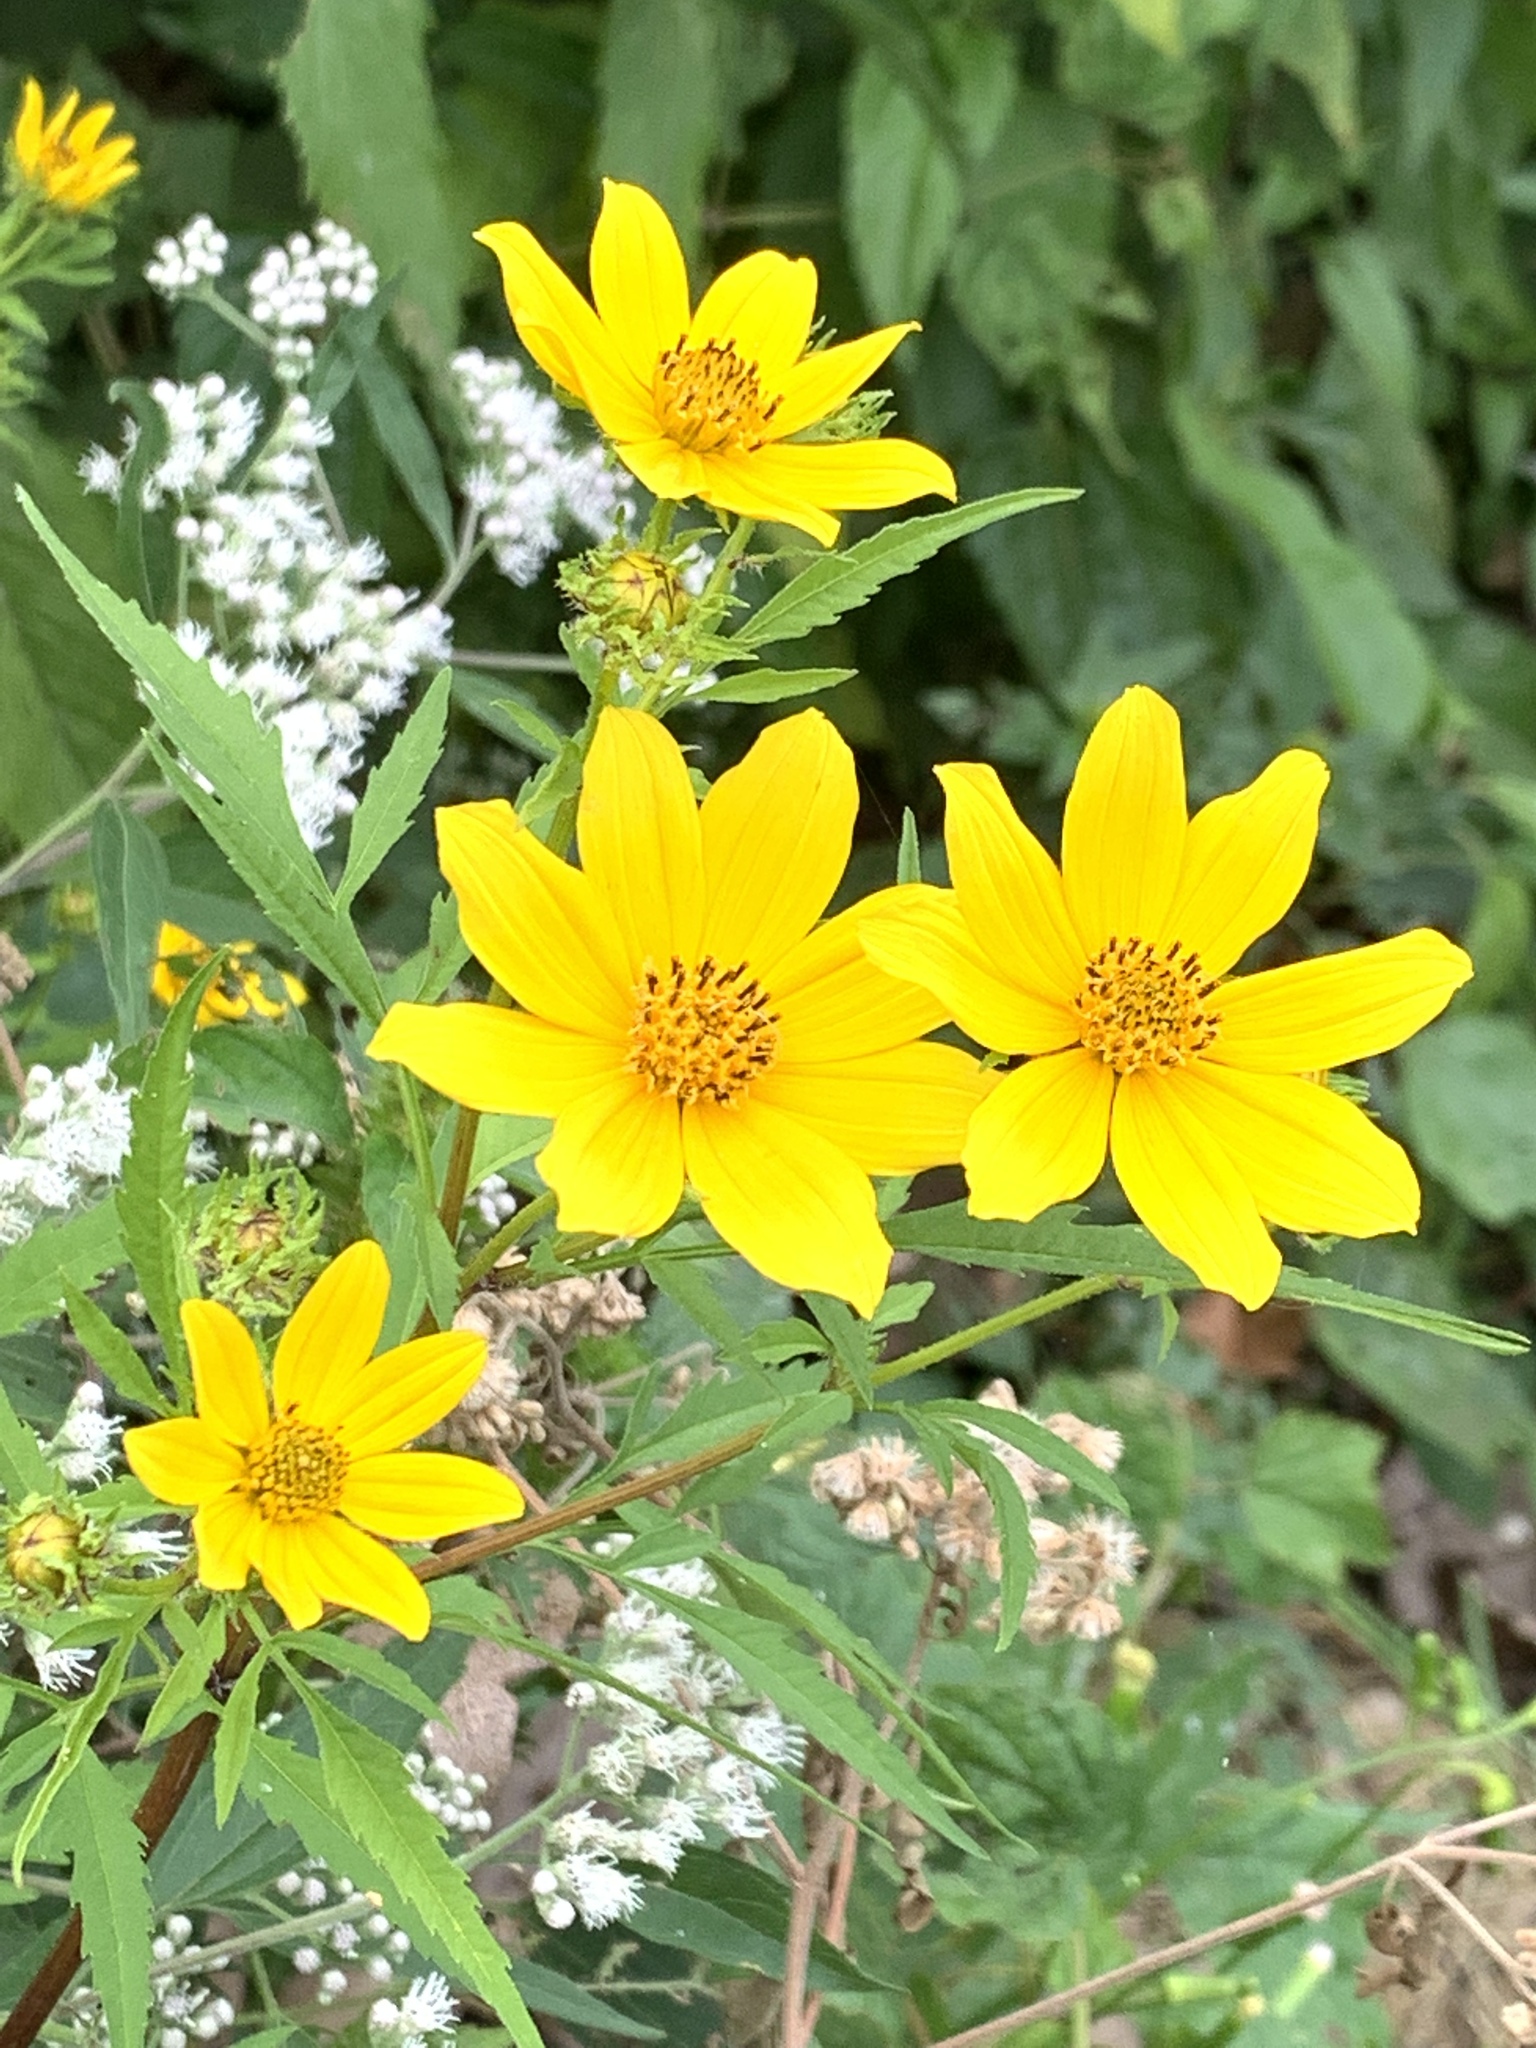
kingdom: Plantae
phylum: Tracheophyta
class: Magnoliopsida
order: Asterales
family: Asteraceae
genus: Bidens
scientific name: Bidens polylepis
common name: Awnless beggarticks
